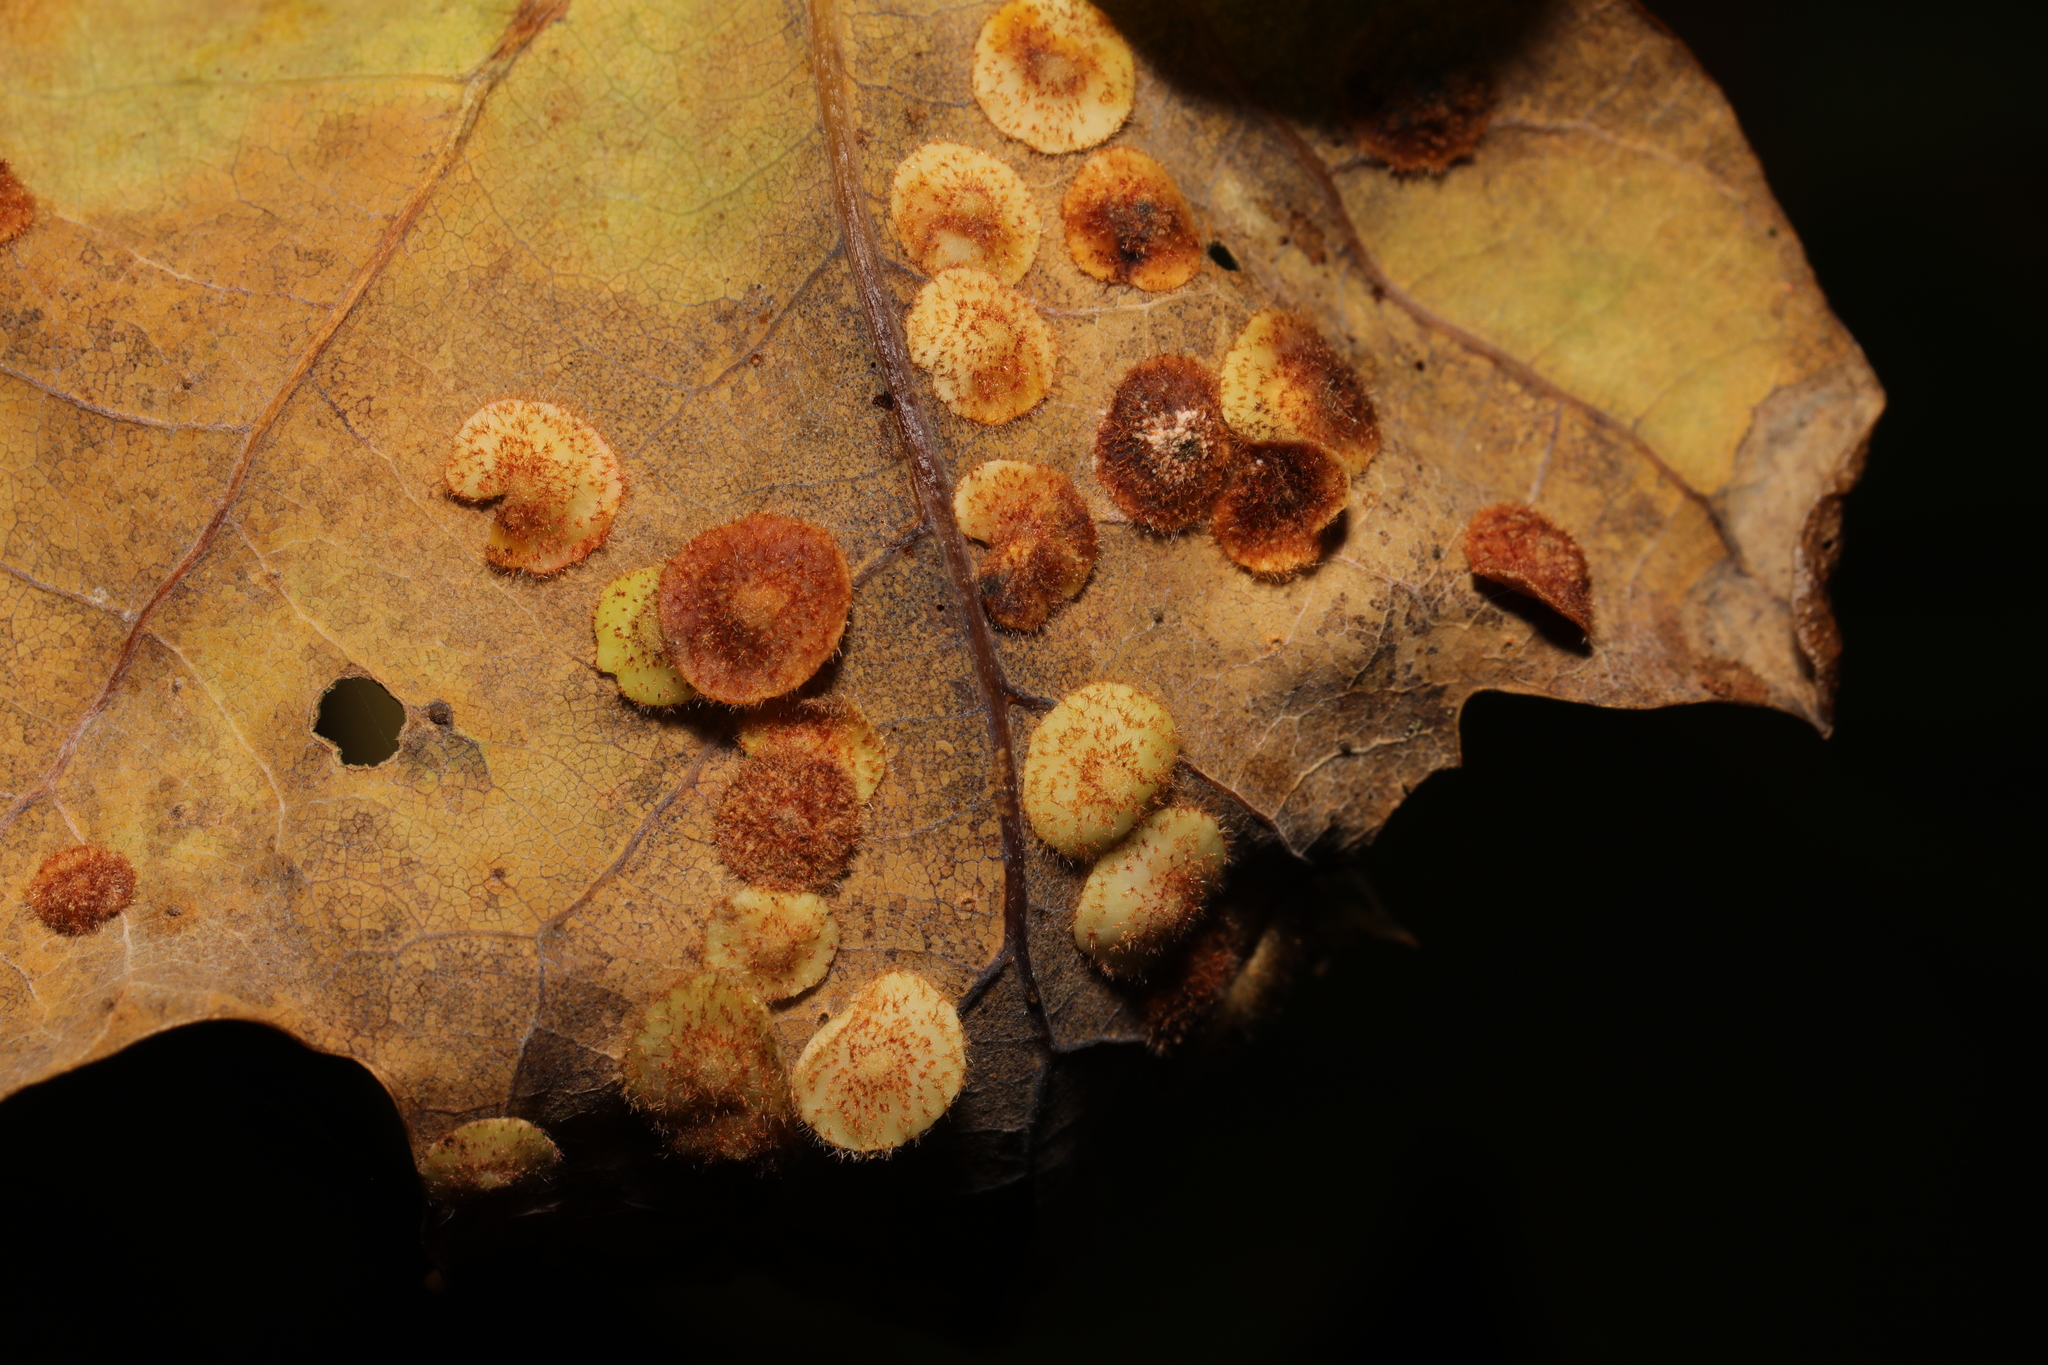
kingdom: Animalia
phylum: Arthropoda
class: Insecta
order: Hymenoptera
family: Cynipidae
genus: Neuroterus
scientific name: Neuroterus quercusbaccarum
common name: Common spangle gall
